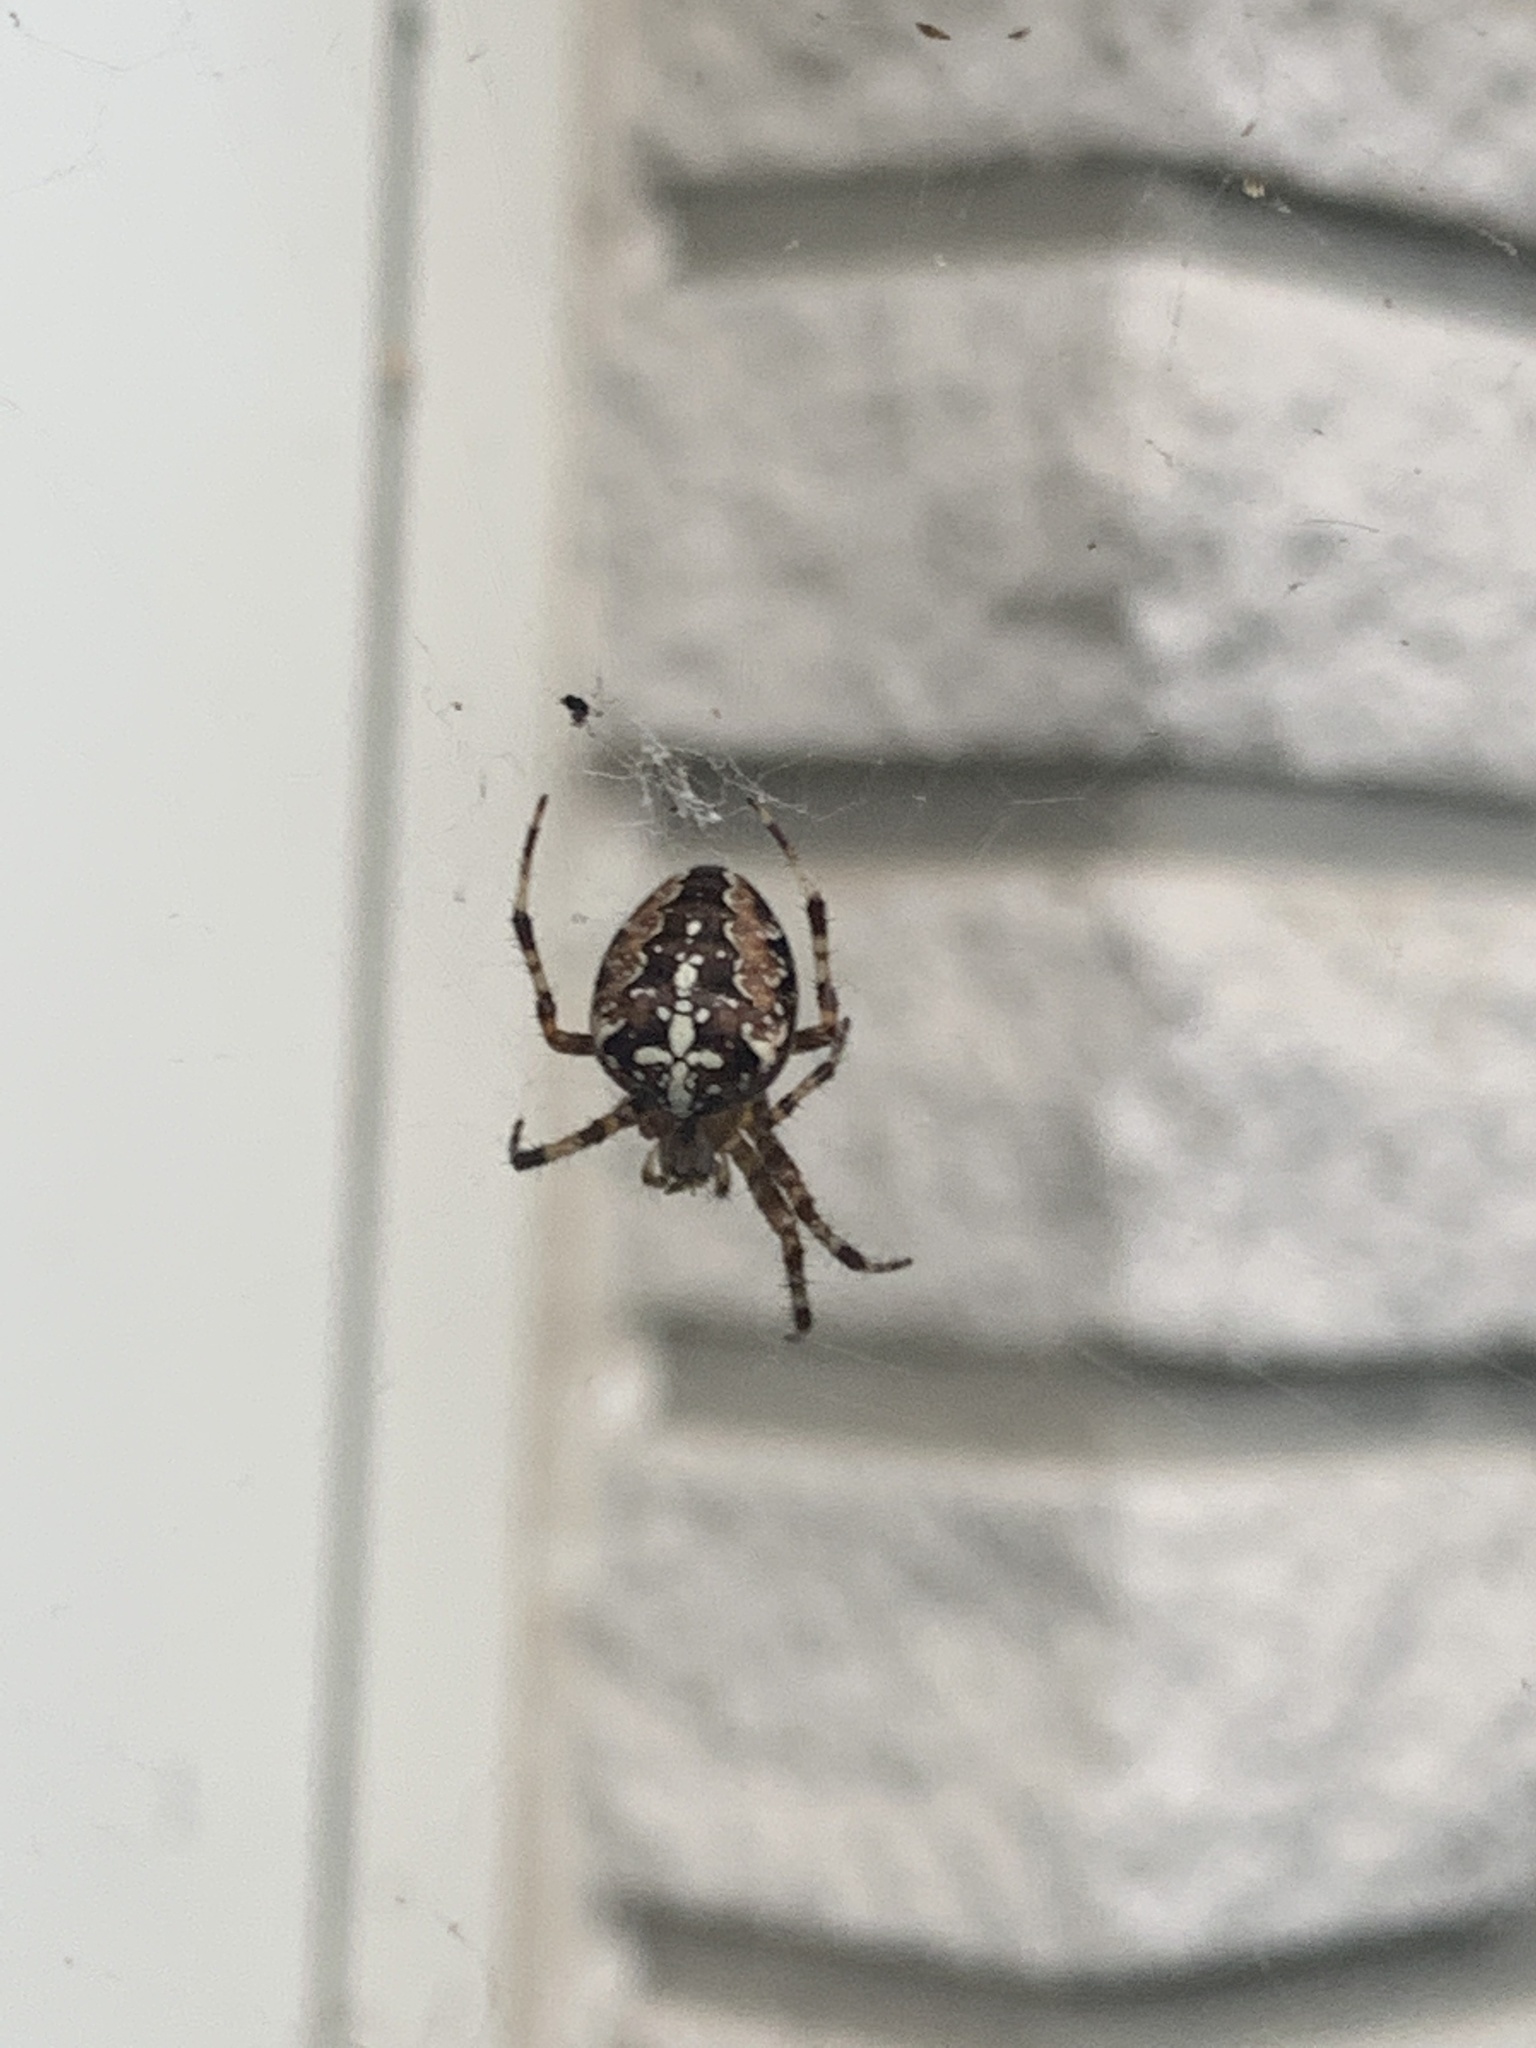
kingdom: Animalia
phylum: Arthropoda
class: Arachnida
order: Araneae
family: Araneidae
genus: Araneus
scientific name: Araneus diadematus
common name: Cross orbweaver
